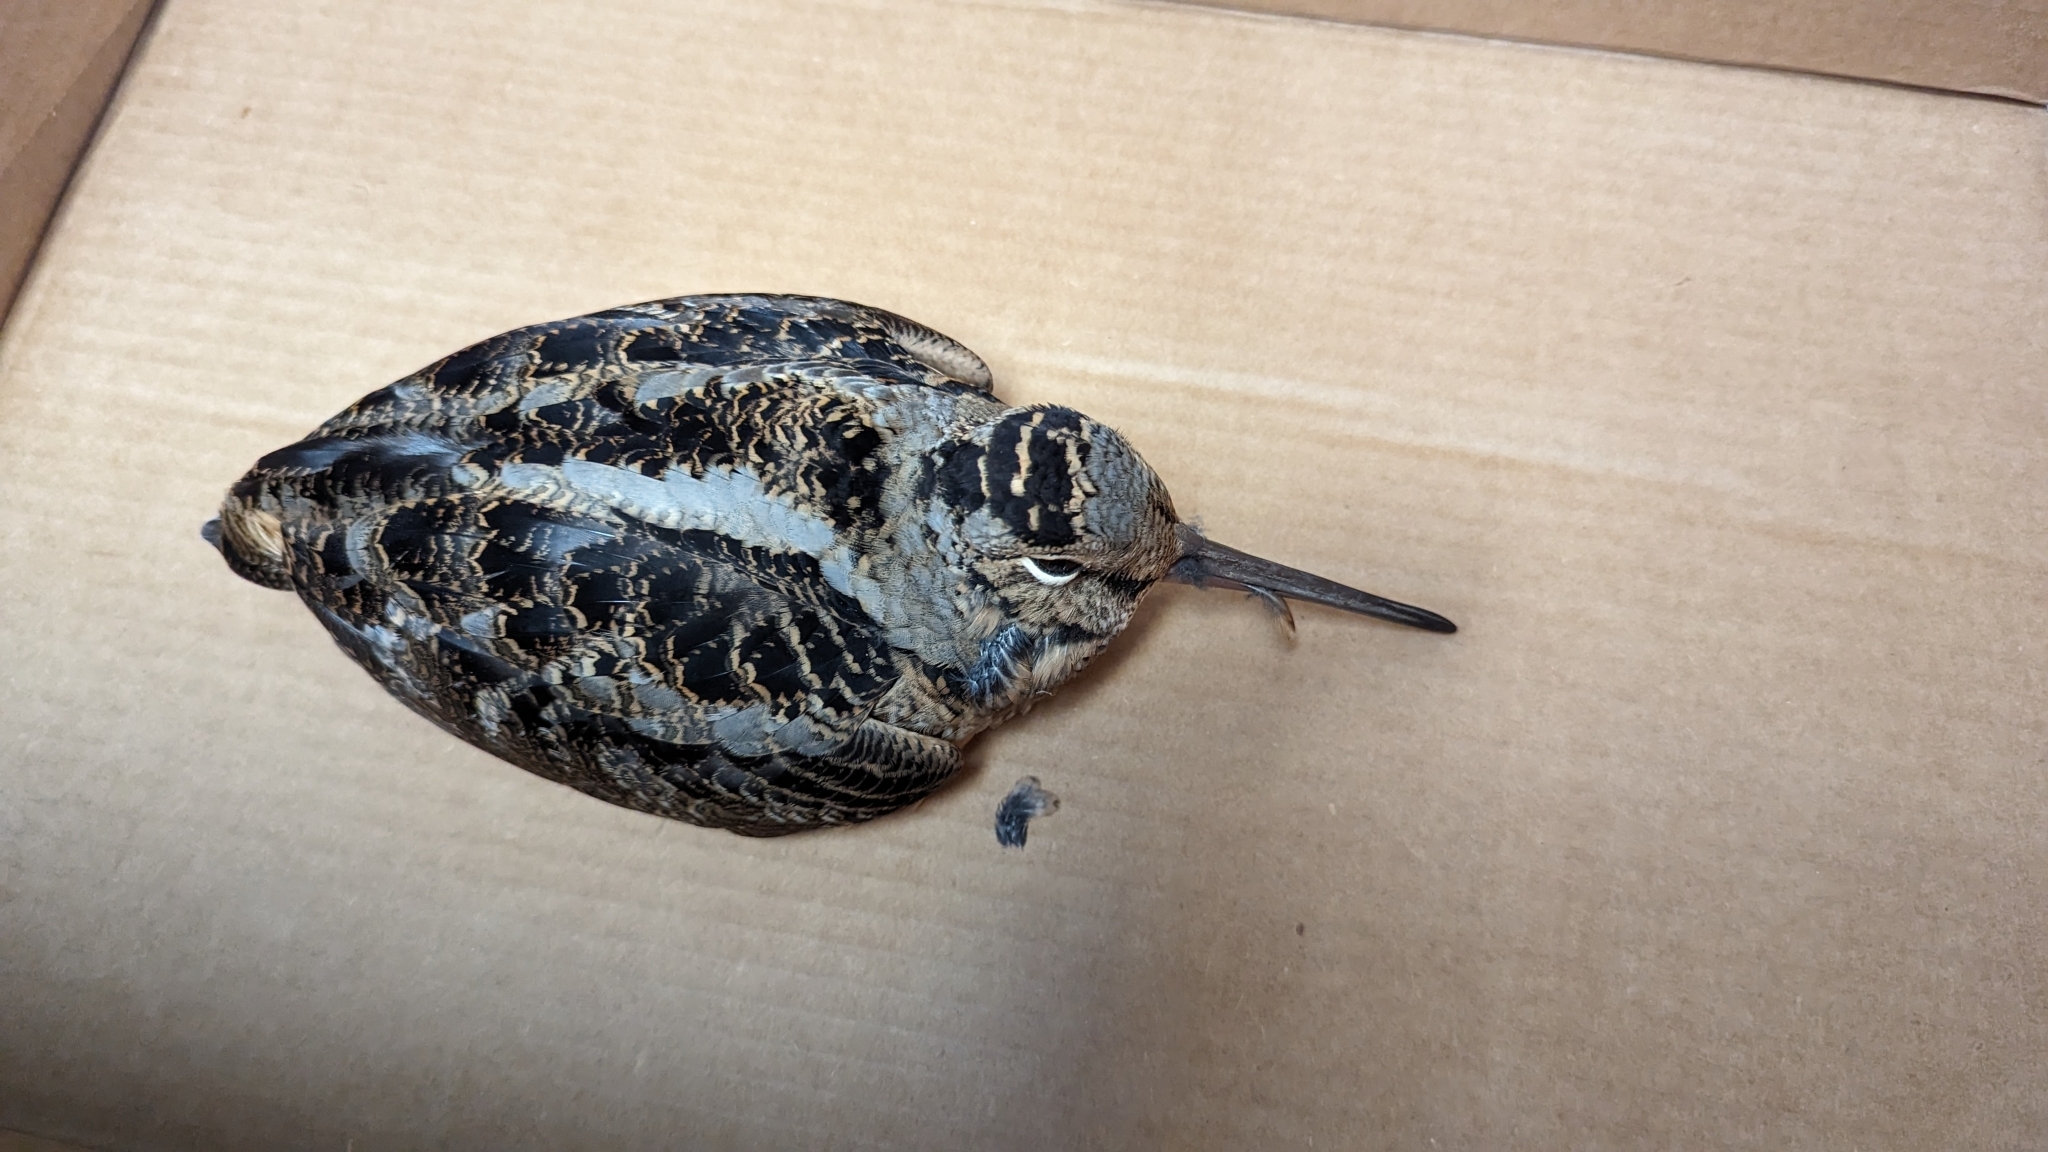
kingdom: Animalia
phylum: Chordata
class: Aves
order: Charadriiformes
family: Scolopacidae
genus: Scolopax
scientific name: Scolopax minor
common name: American woodcock
